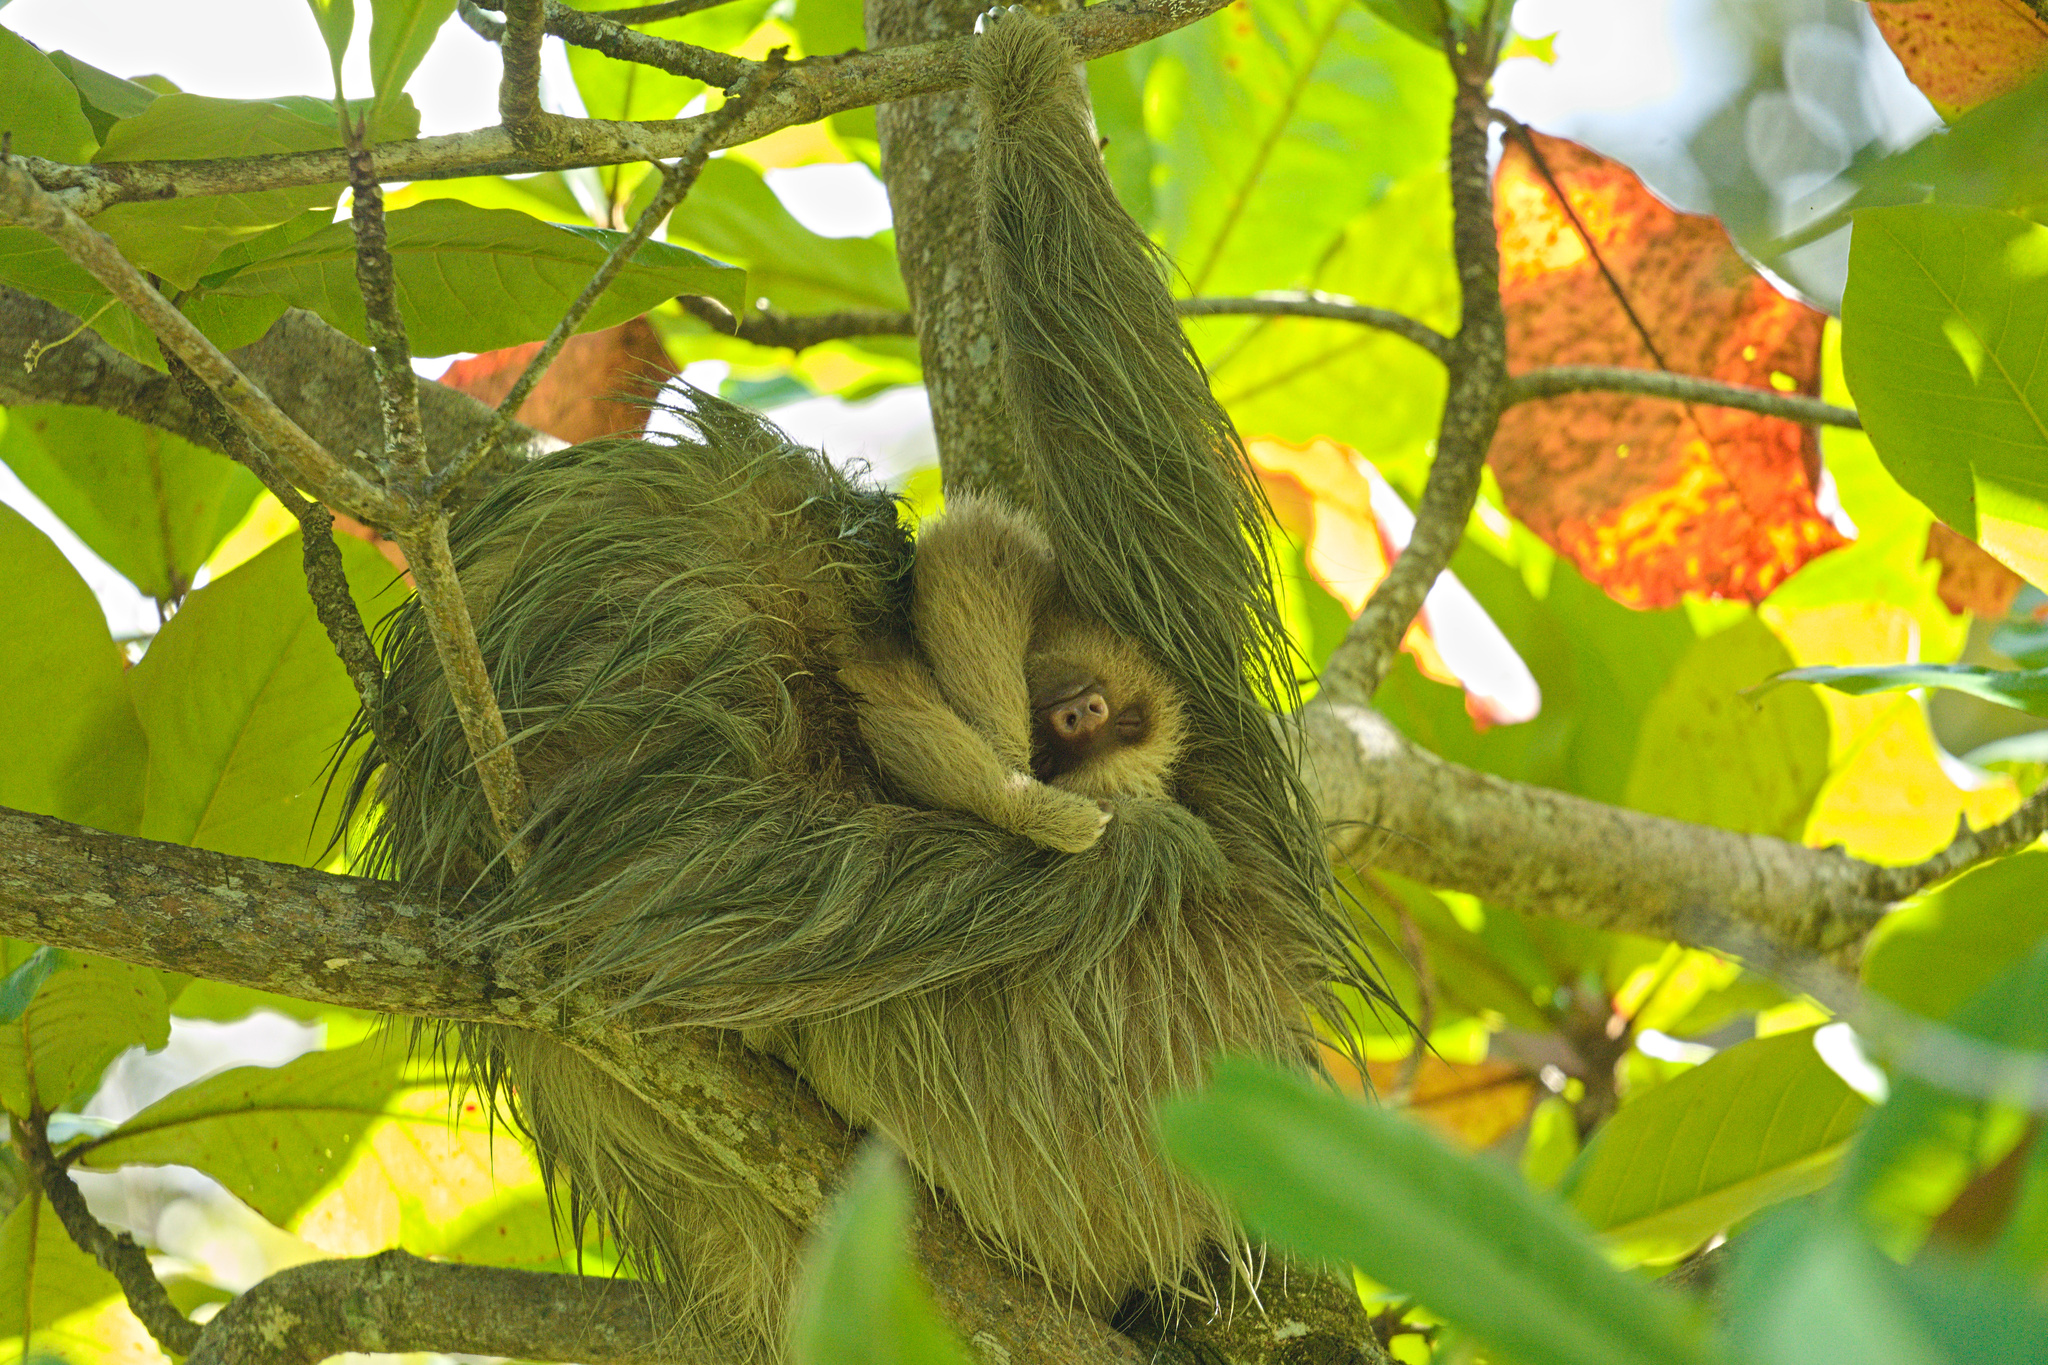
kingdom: Animalia
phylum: Chordata
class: Mammalia
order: Pilosa
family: Megalonychidae
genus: Choloepus
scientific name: Choloepus hoffmanni
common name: Hoffmann's two-toed sloth
